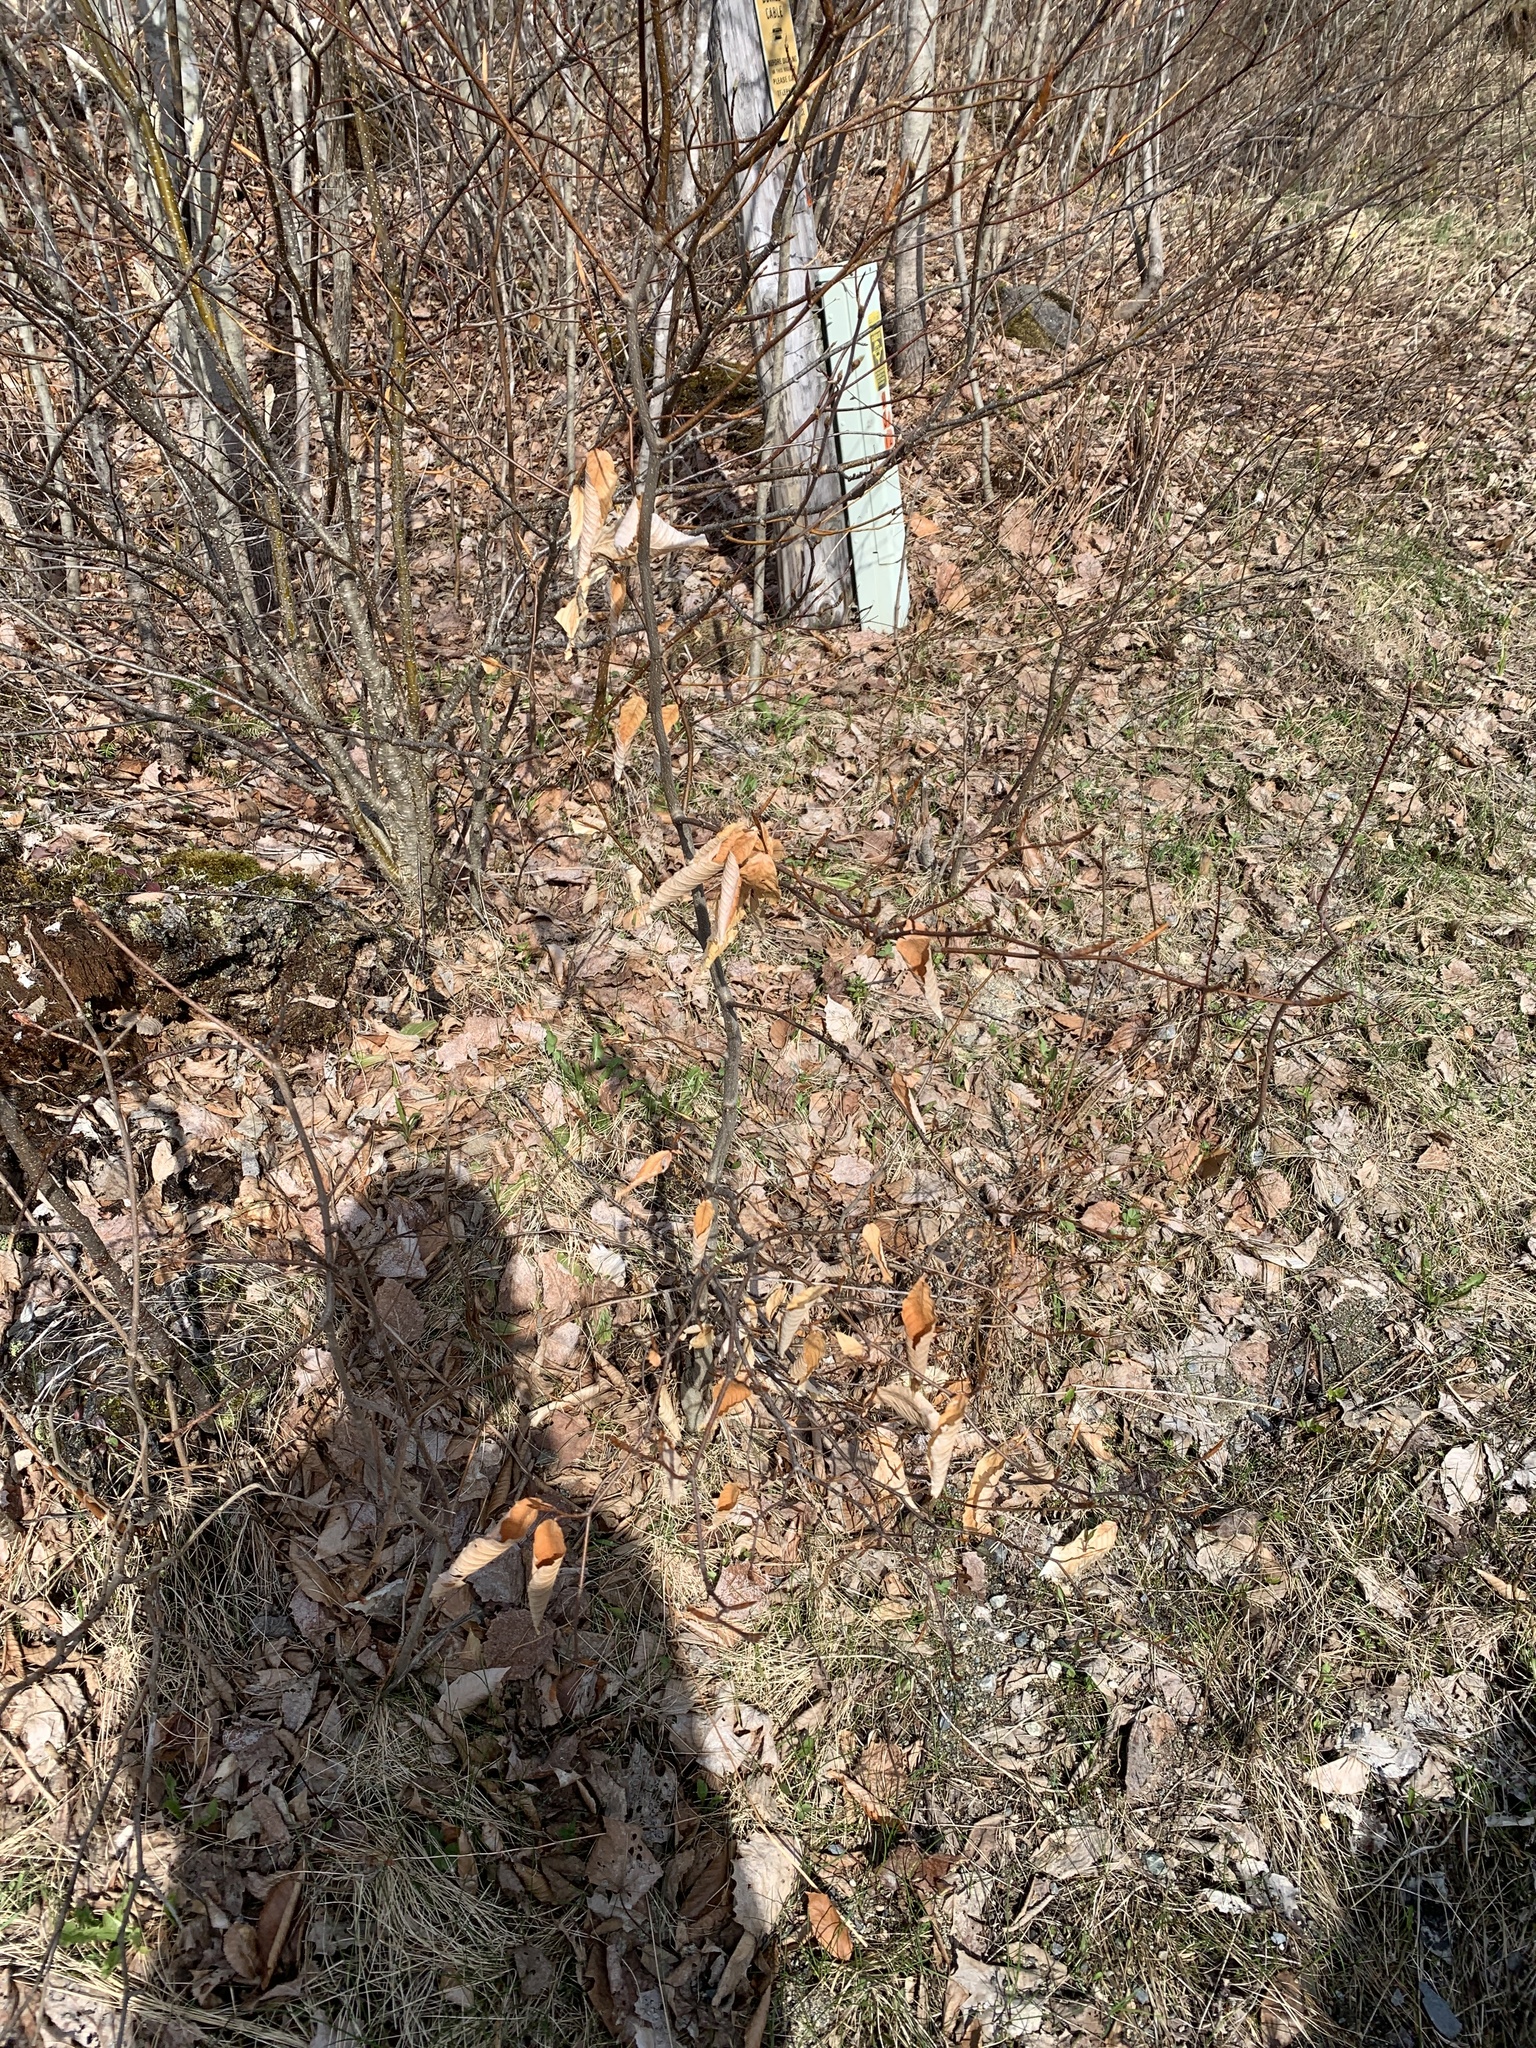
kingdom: Plantae
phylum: Tracheophyta
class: Magnoliopsida
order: Fagales
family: Fagaceae
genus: Fagus
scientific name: Fagus grandifolia
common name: American beech
